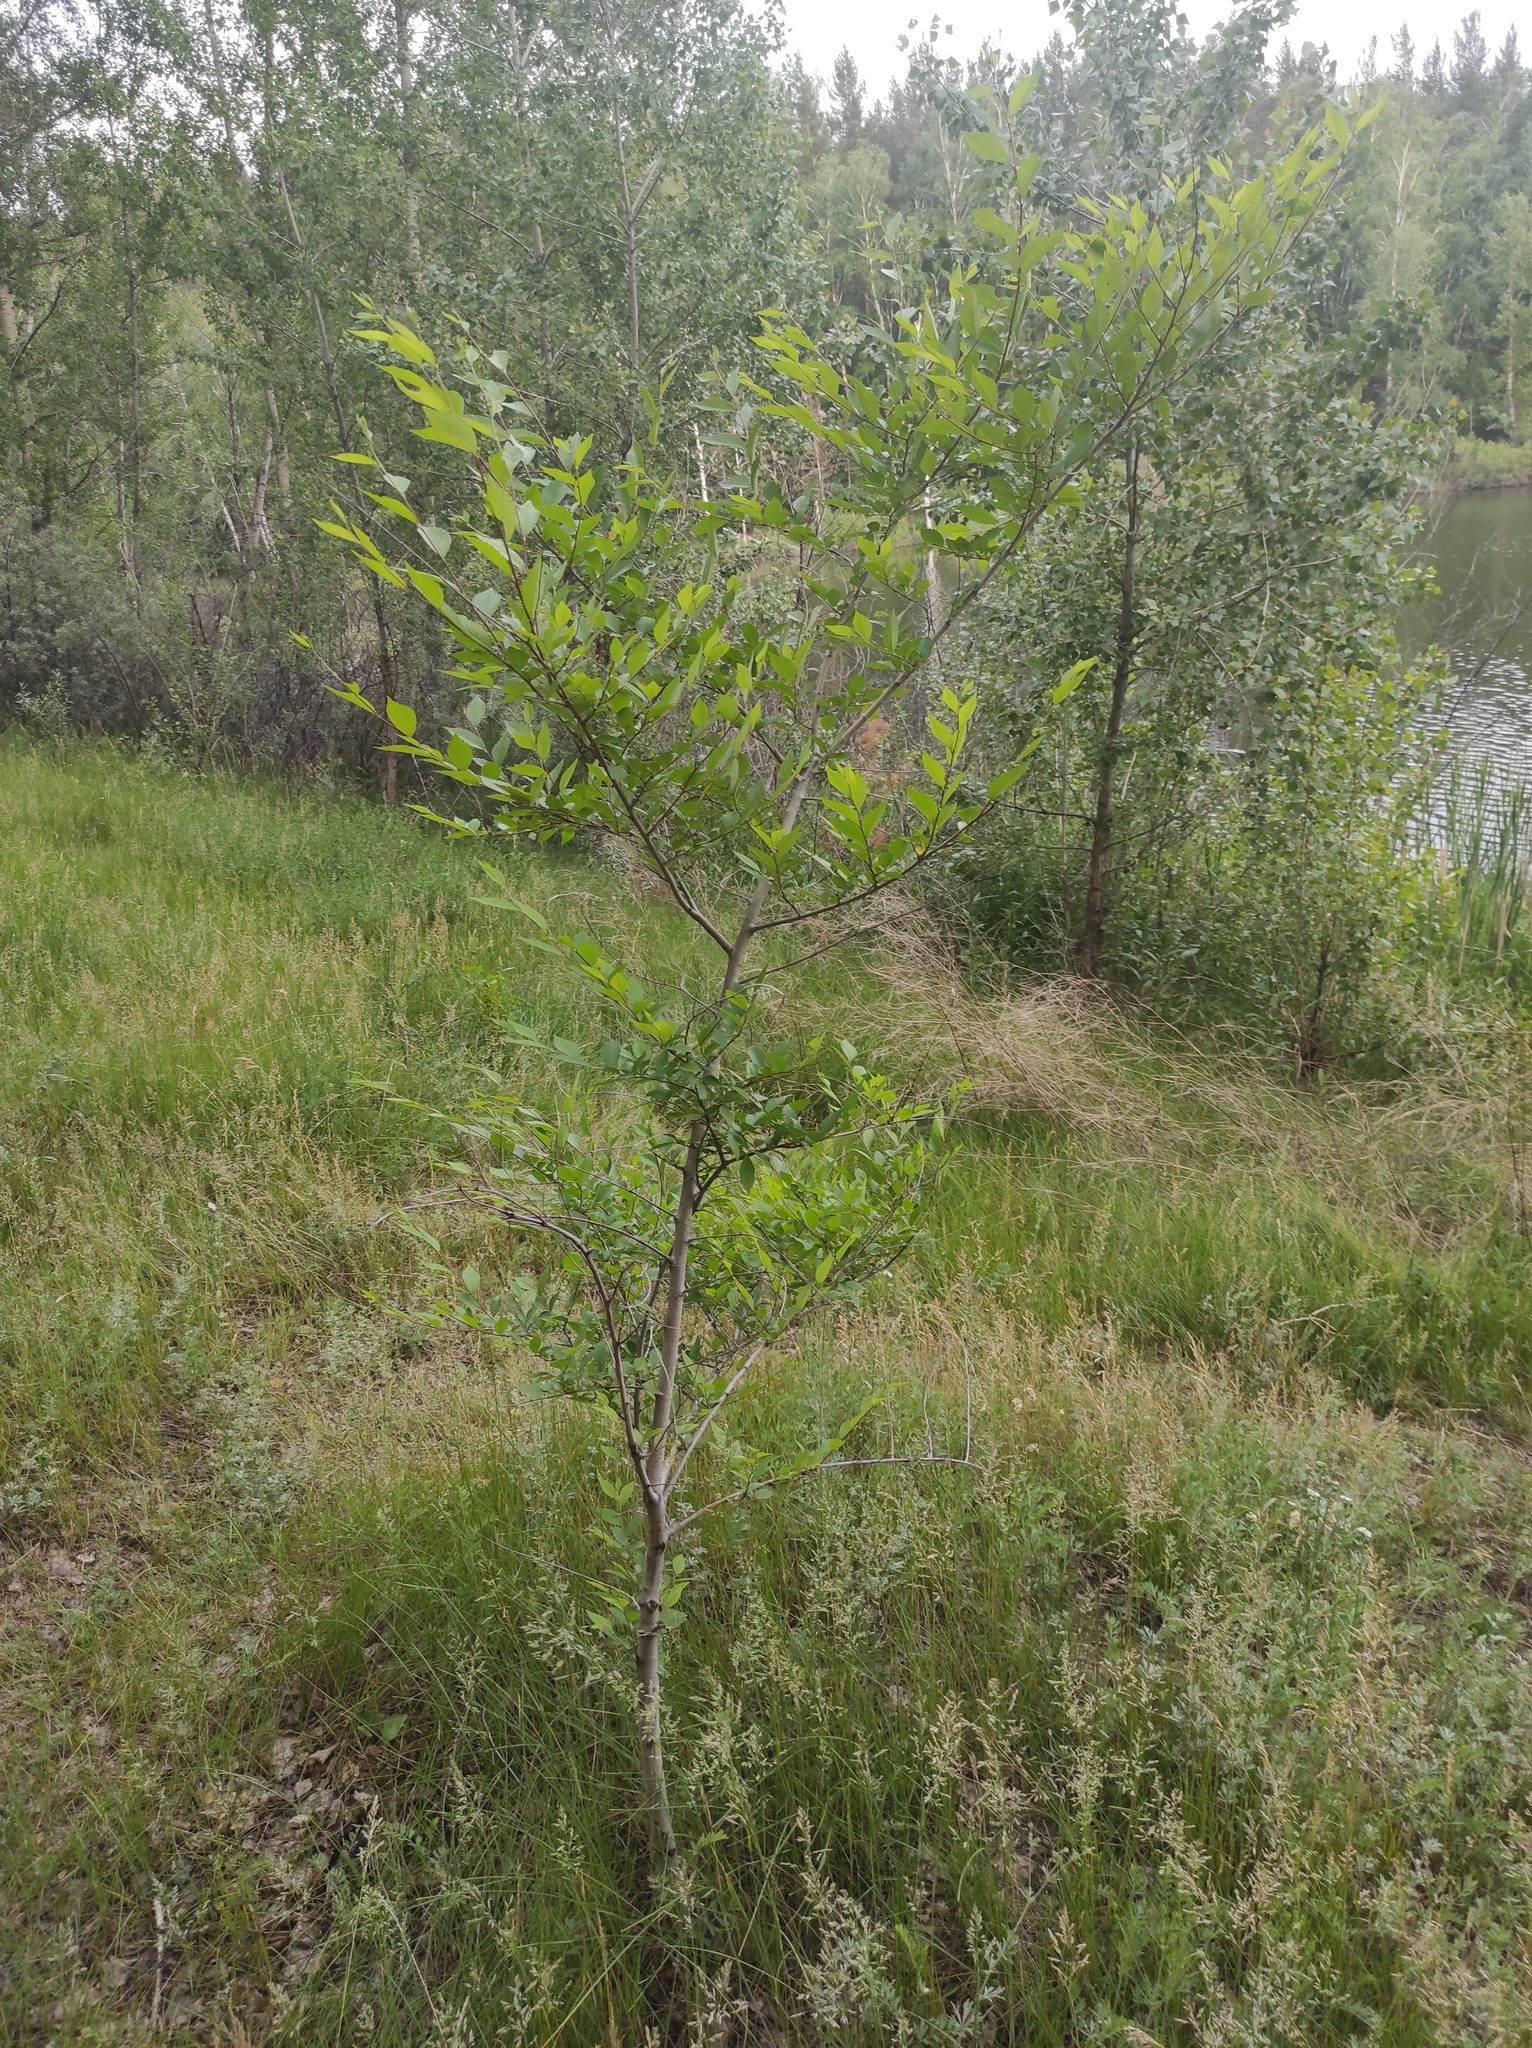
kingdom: Plantae
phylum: Tracheophyta
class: Magnoliopsida
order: Rosales
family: Ulmaceae
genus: Ulmus
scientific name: Ulmus pumila
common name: Siberian elm
